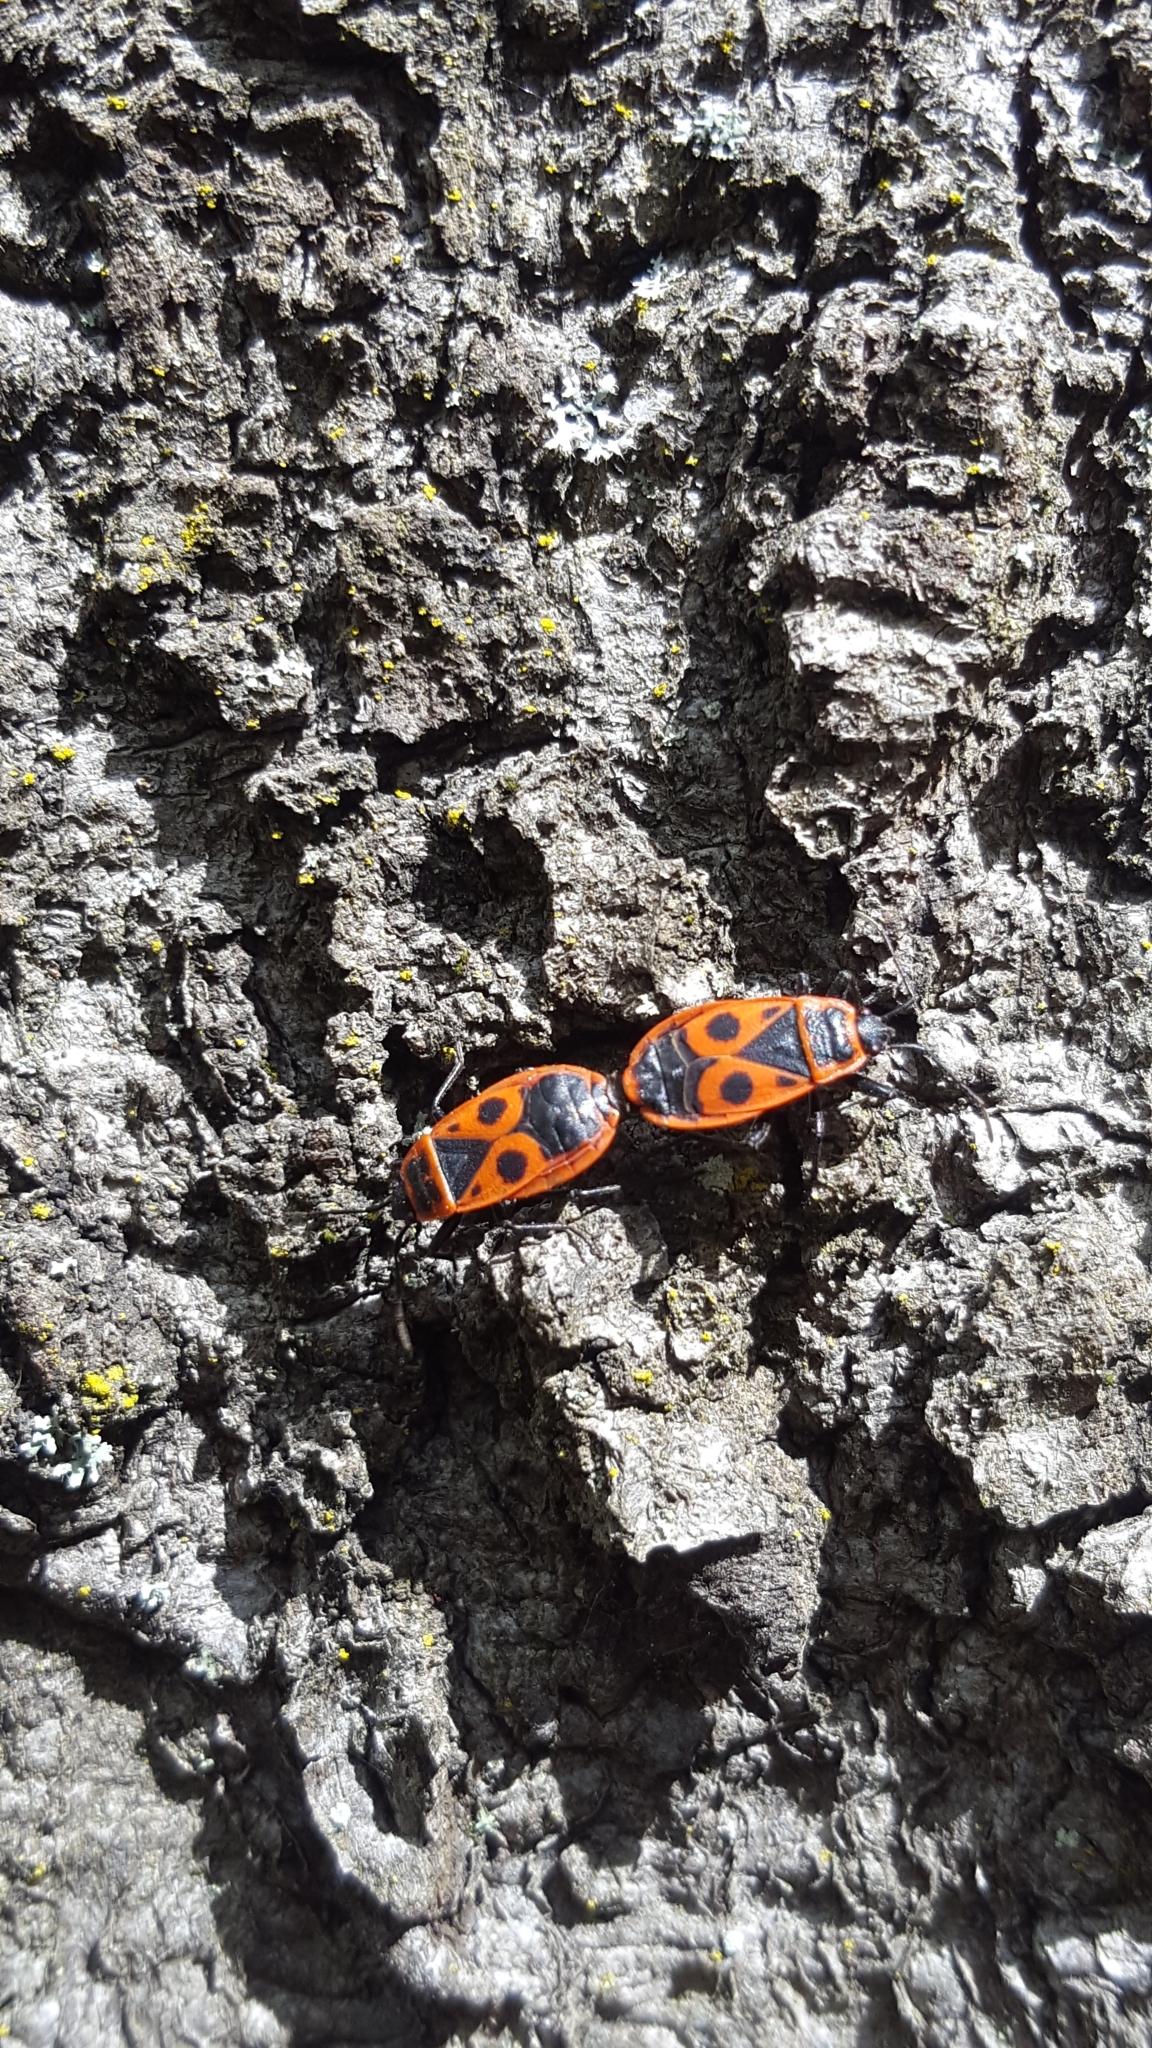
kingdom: Animalia
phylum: Arthropoda
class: Insecta
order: Hemiptera
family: Pyrrhocoridae
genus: Pyrrhocoris
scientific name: Pyrrhocoris apterus
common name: Firebug
